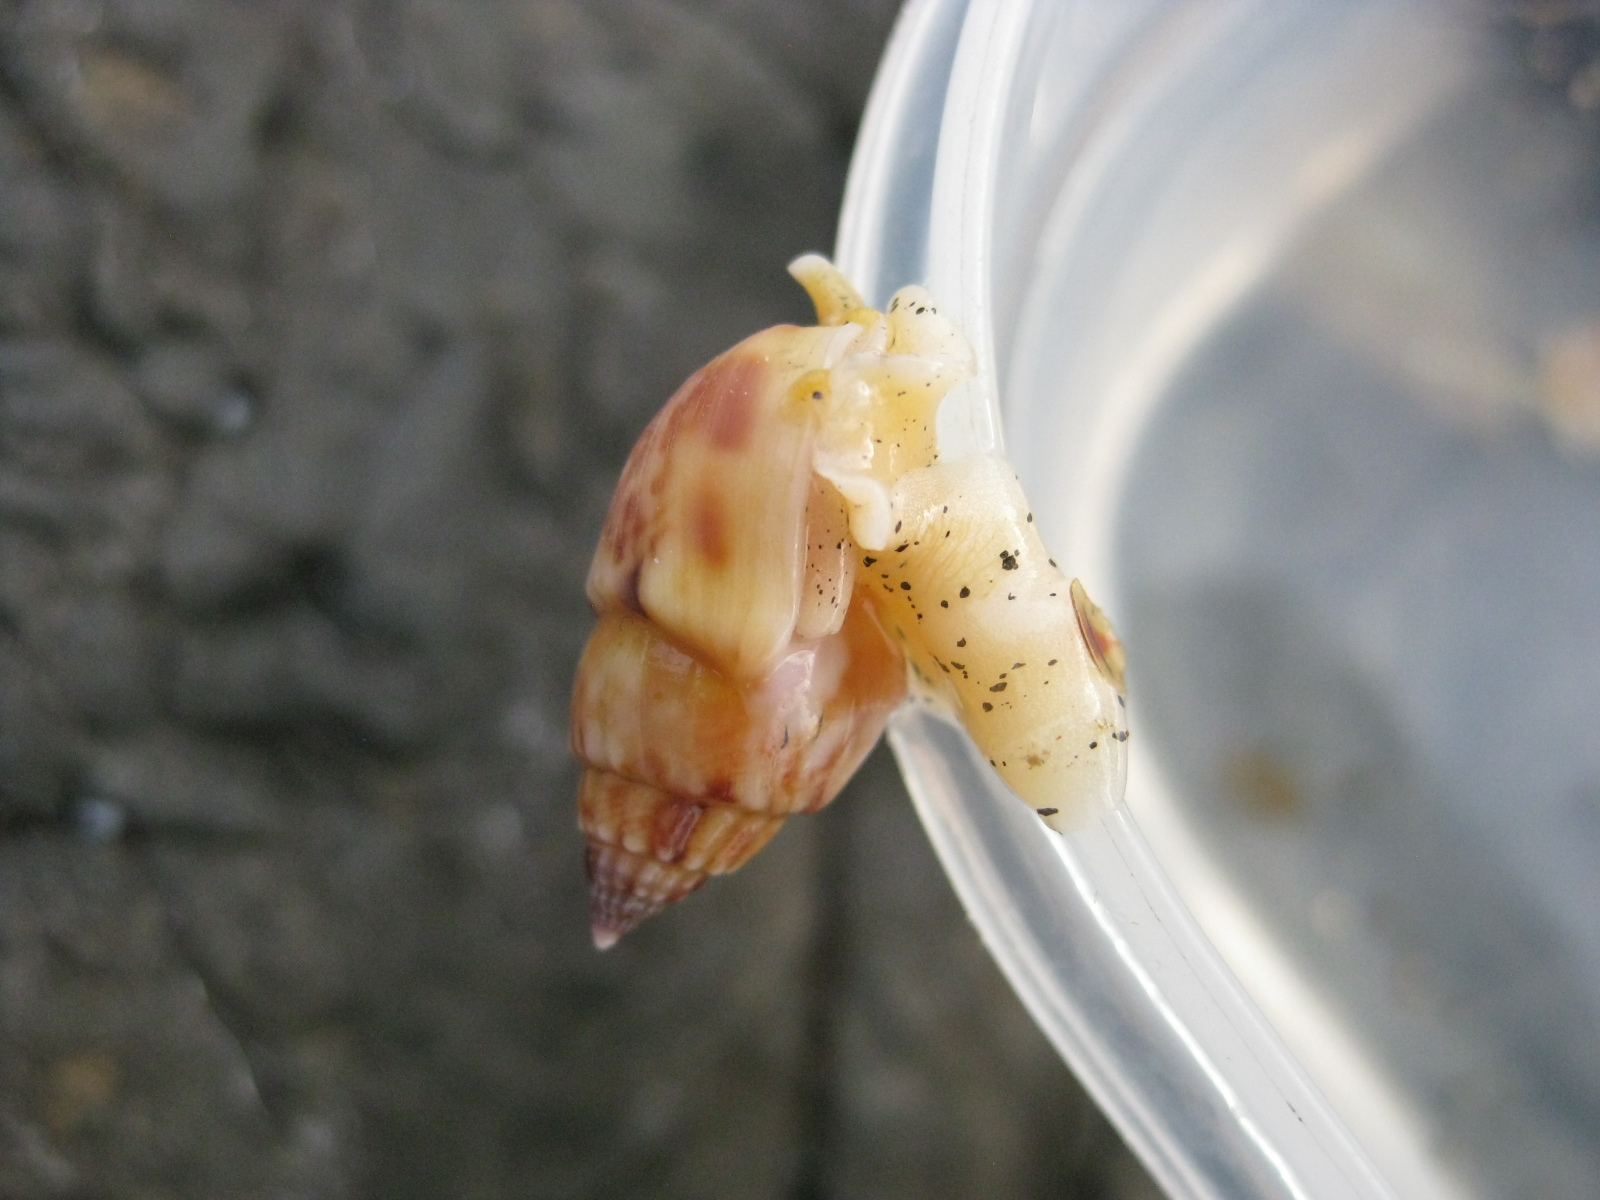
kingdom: Animalia
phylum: Mollusca
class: Gastropoda
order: Neogastropoda
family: Nassariidae
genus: Nassarius
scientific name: Nassarius spiratus
